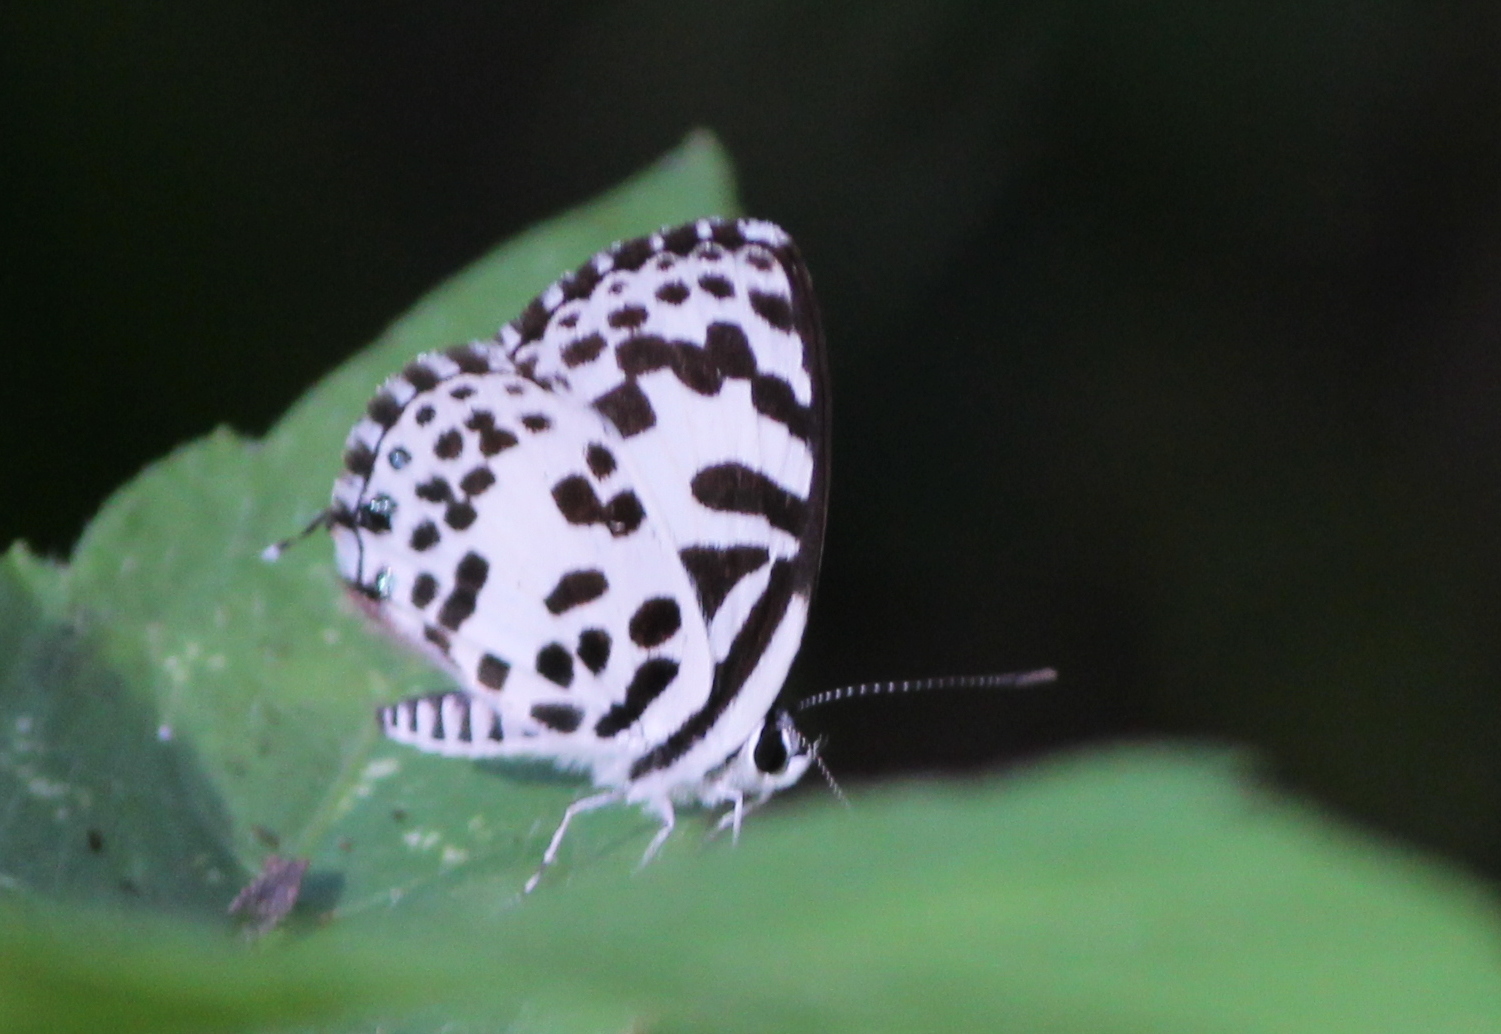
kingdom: Animalia
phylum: Arthropoda
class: Insecta
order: Lepidoptera
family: Lycaenidae
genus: Castalius
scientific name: Castalius rosimon
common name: Common pierrot
